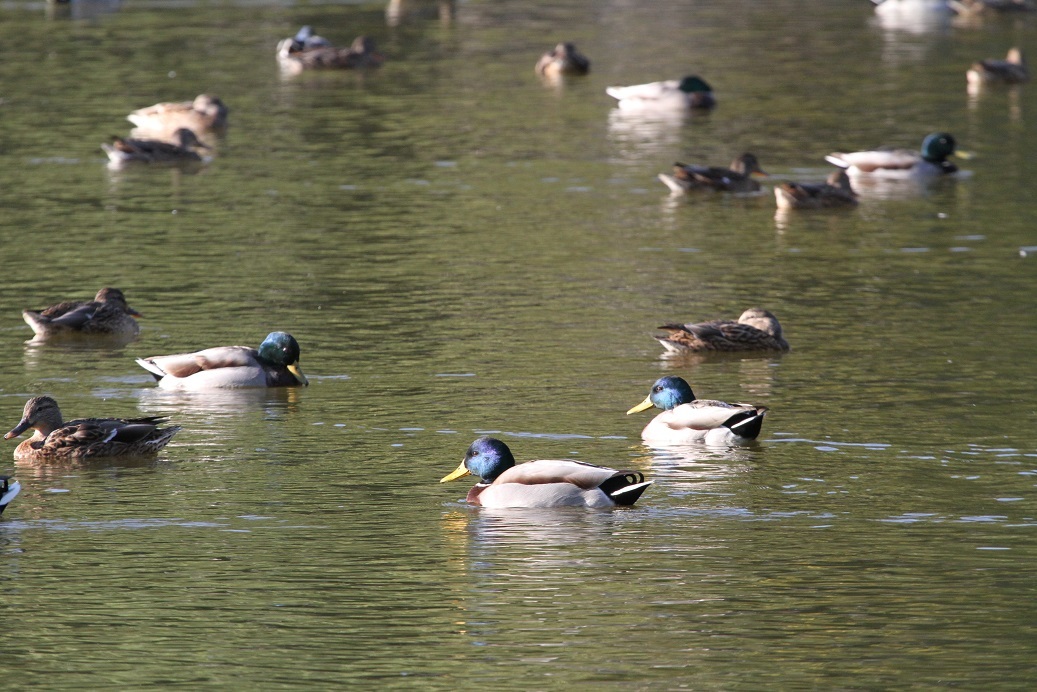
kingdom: Animalia
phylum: Chordata
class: Aves
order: Anseriformes
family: Anatidae
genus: Anas
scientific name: Anas platyrhynchos
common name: Mallard
